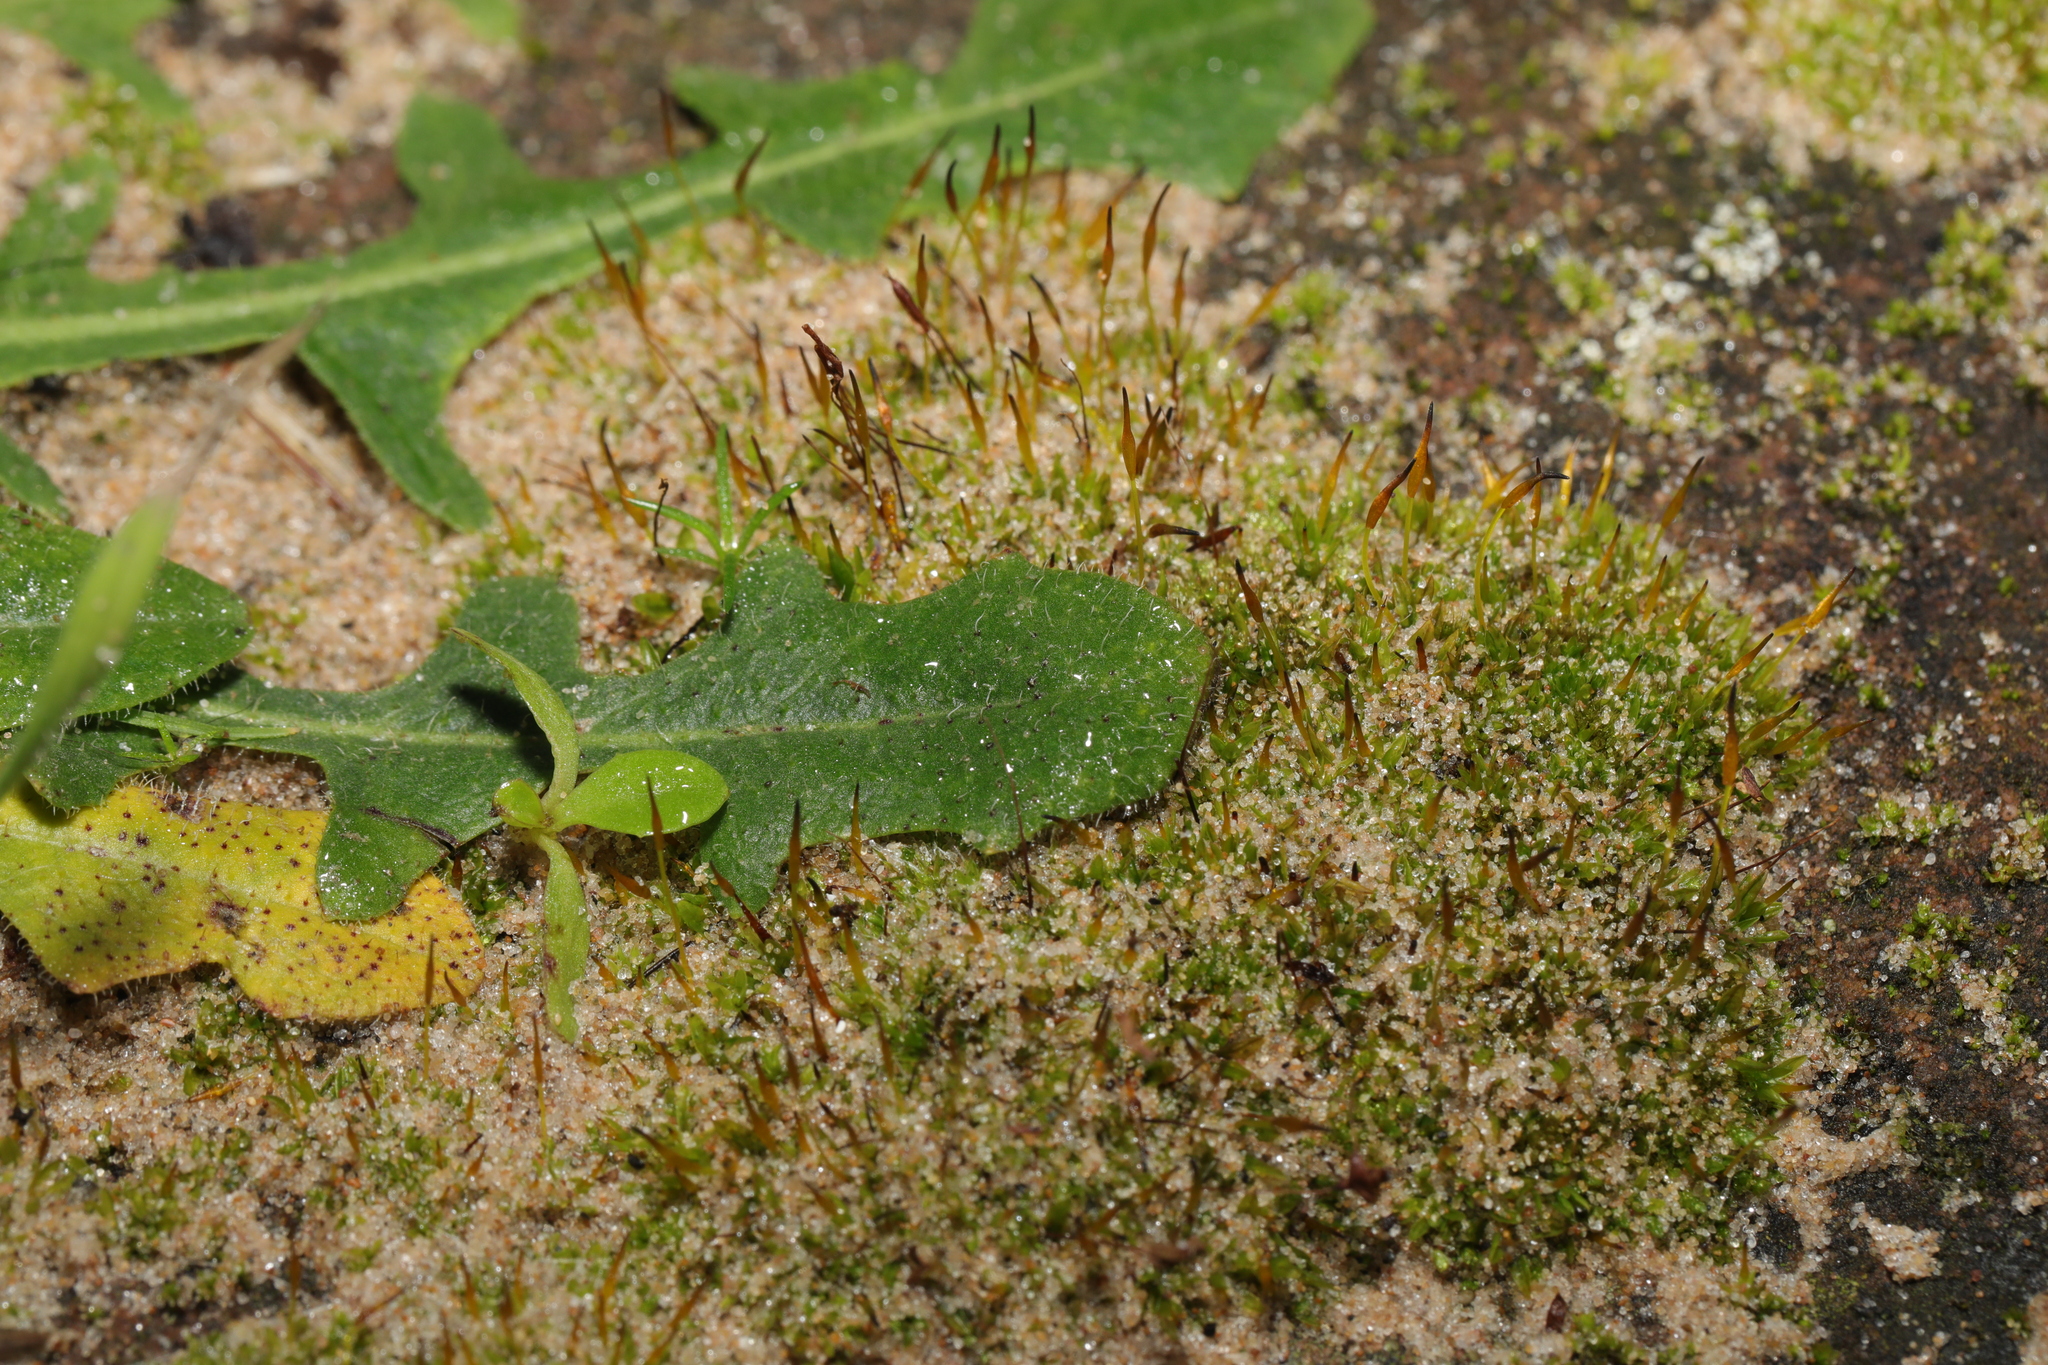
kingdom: Plantae
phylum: Bryophyta
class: Bryopsida
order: Pottiales
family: Pottiaceae
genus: Tortula
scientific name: Tortula muralis
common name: Wall screw-moss
